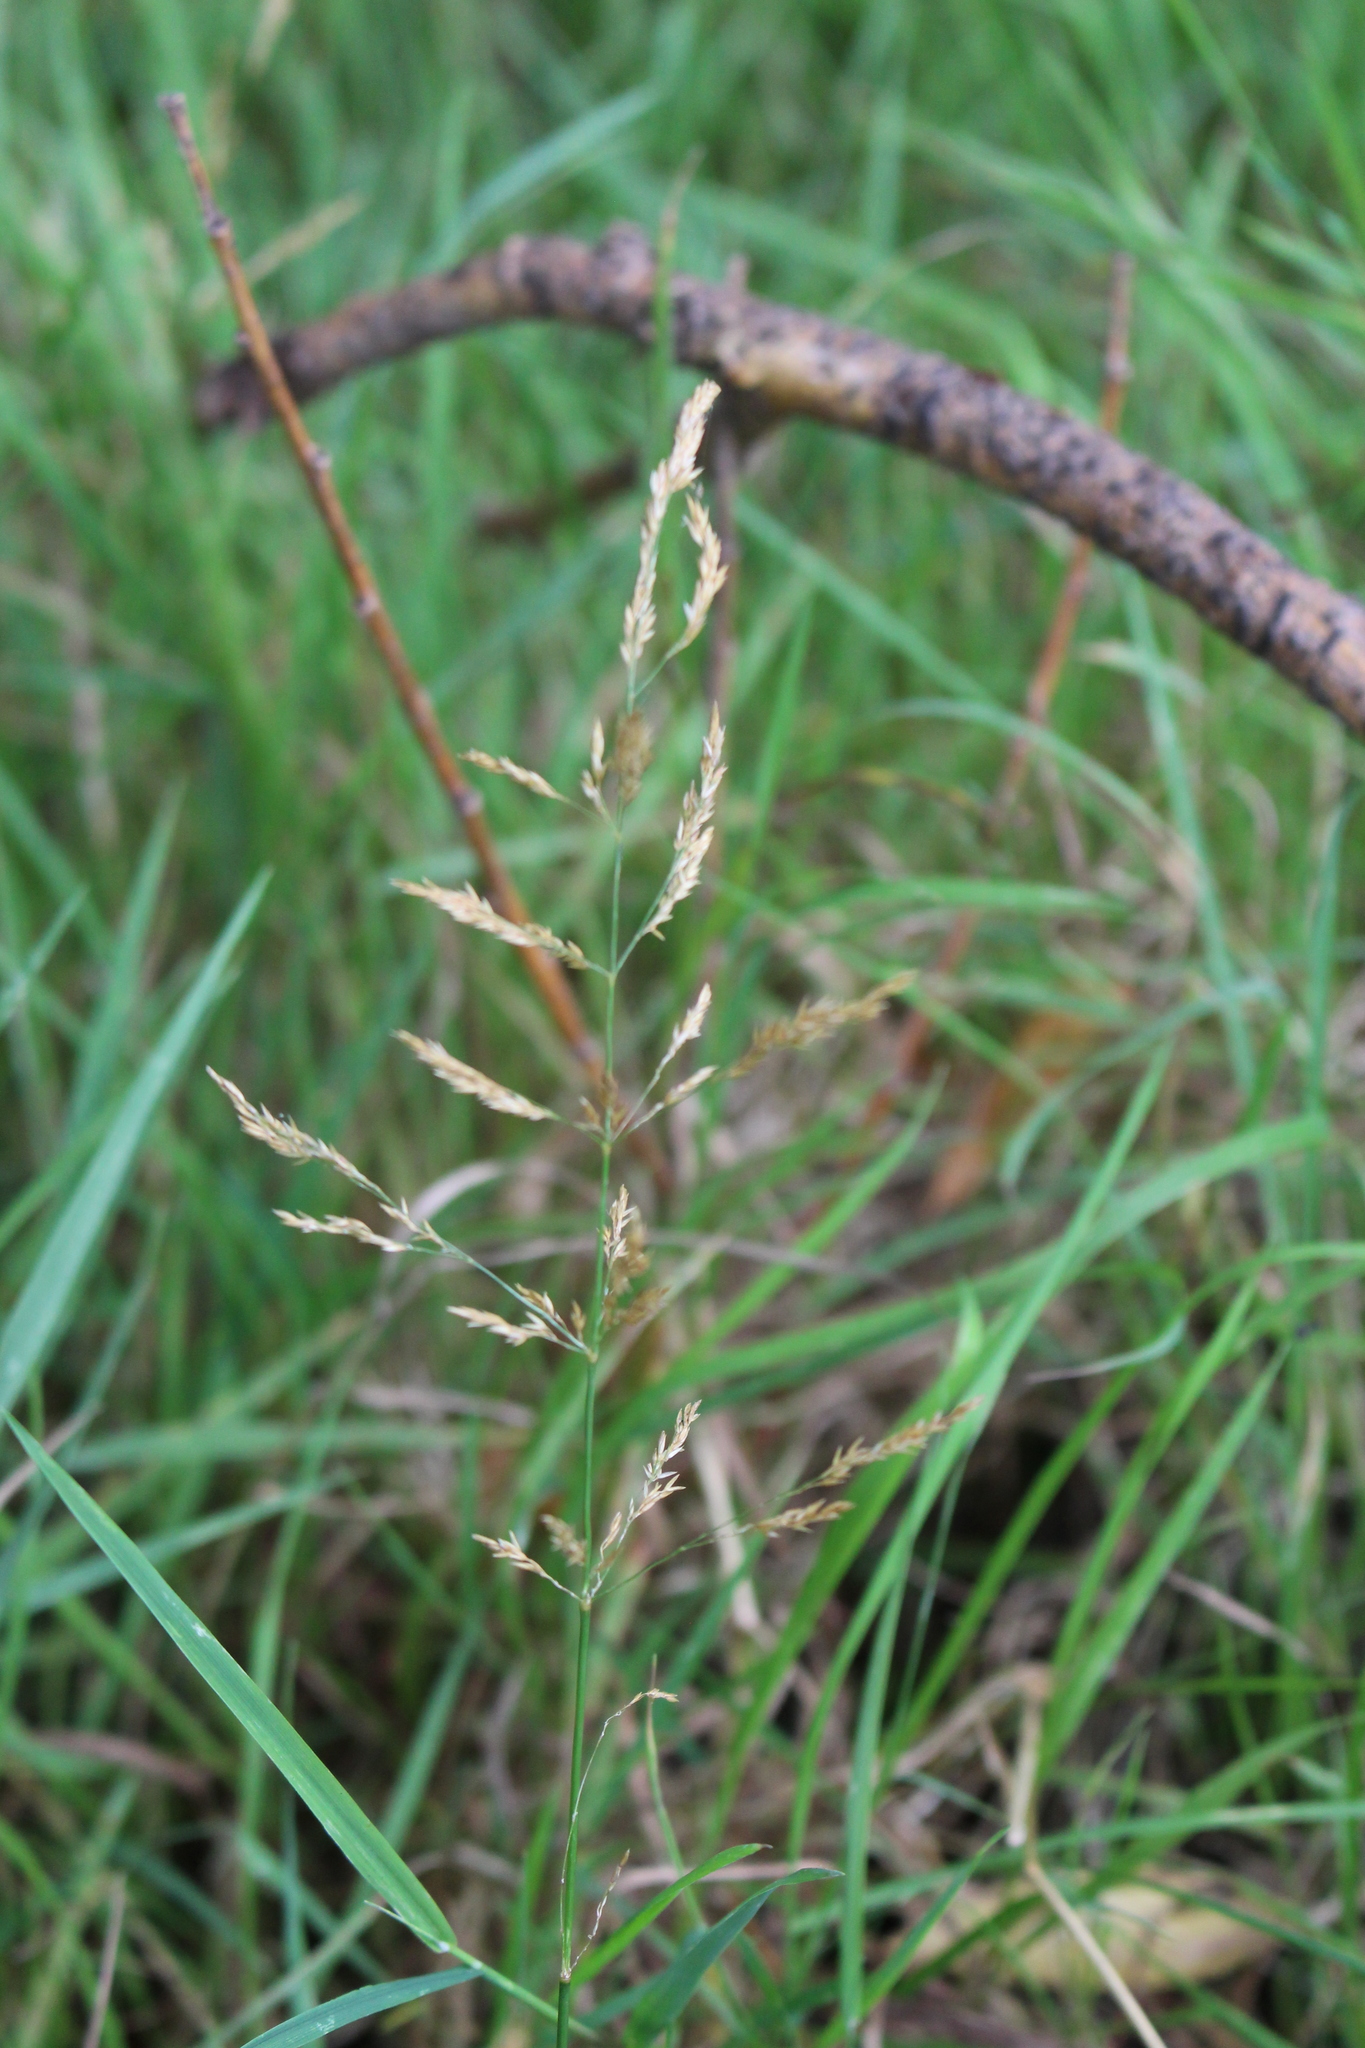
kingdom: Plantae
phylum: Tracheophyta
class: Liliopsida
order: Poales
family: Poaceae
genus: Agrostis
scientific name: Agrostis stolonifera
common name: Creeping bentgrass
